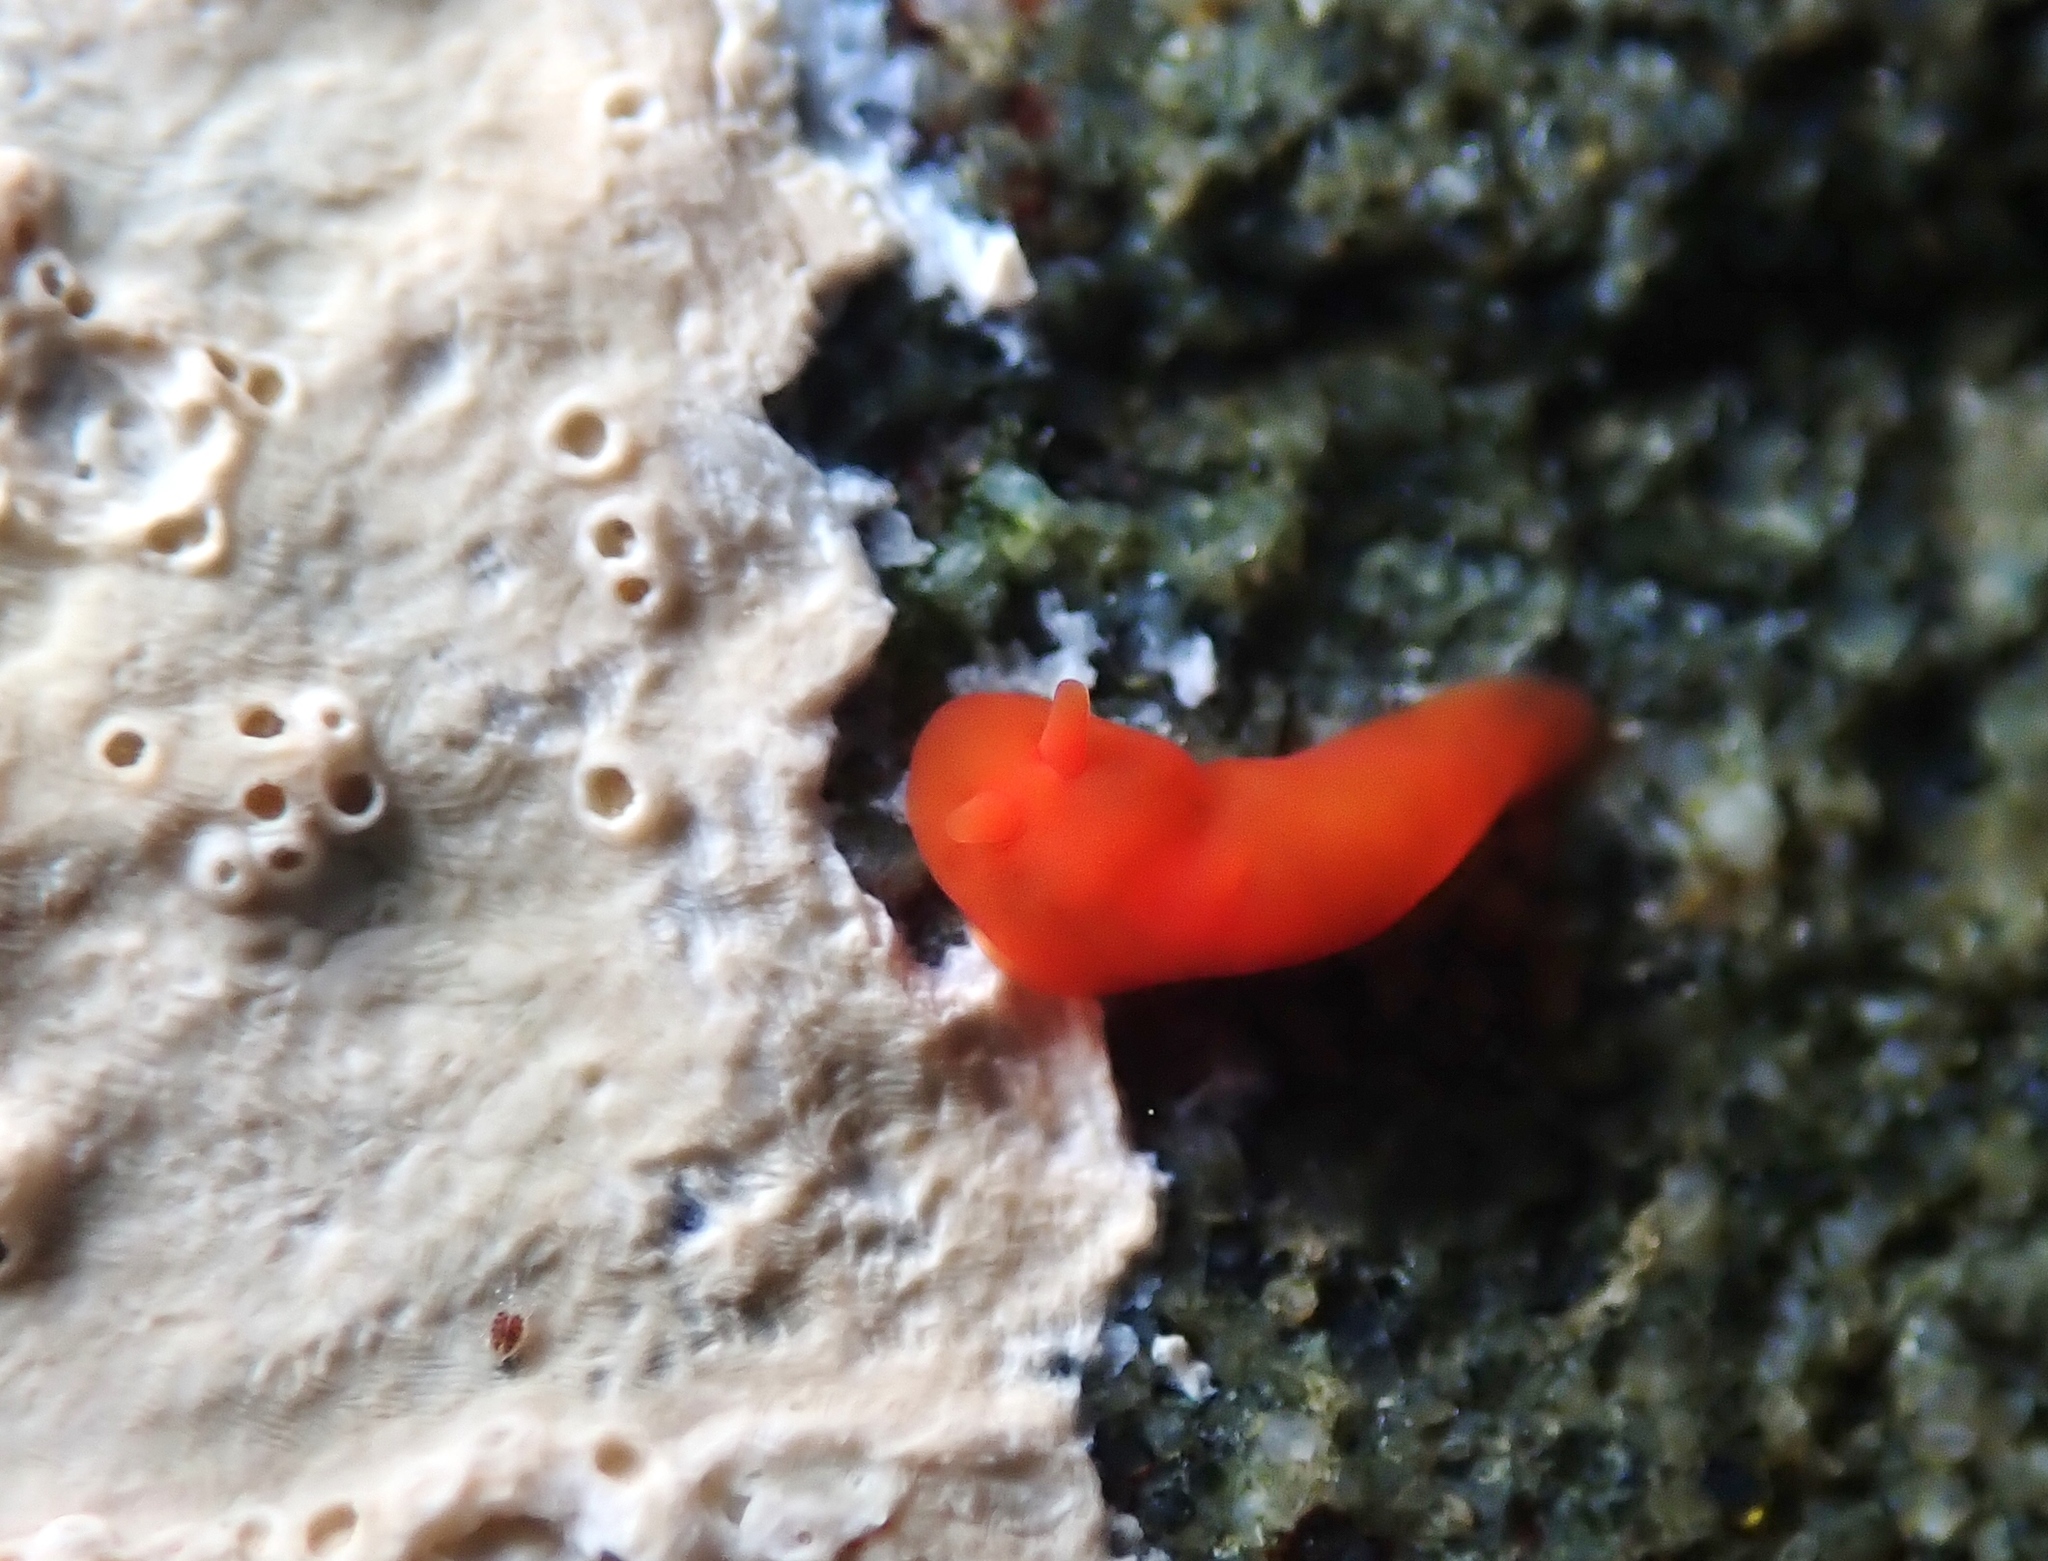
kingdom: Animalia
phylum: Mollusca
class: Gastropoda
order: Nudibranchia
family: Okadaiidae
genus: Vayssierea
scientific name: Vayssierea cinnabarea
